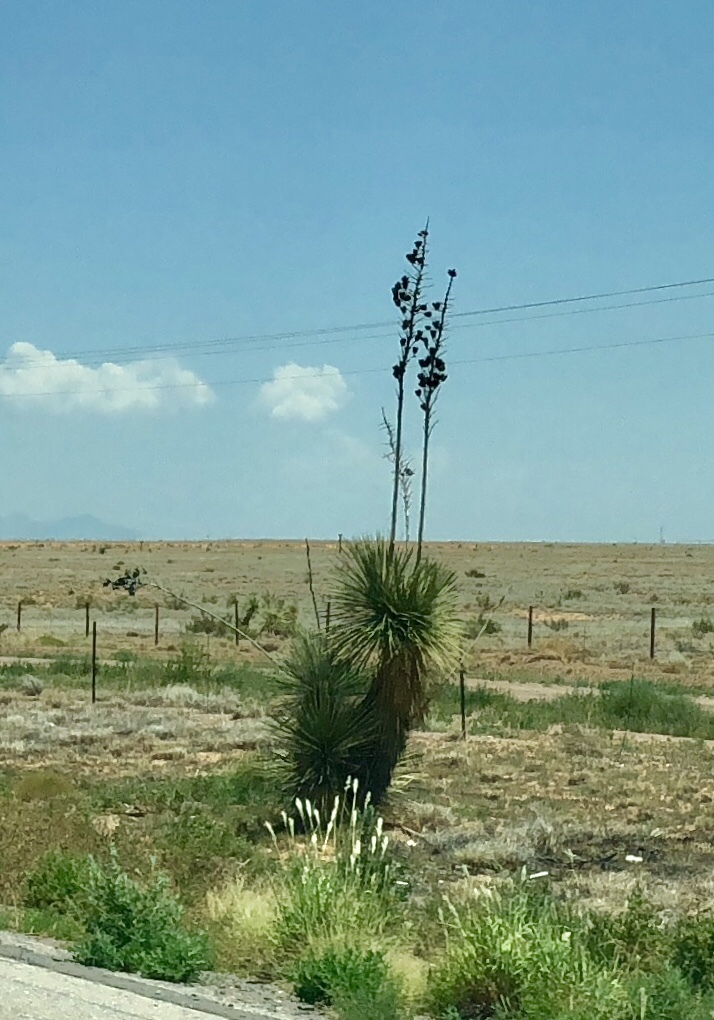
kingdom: Plantae
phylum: Tracheophyta
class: Liliopsida
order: Asparagales
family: Asparagaceae
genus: Yucca
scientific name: Yucca elata
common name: Palmella
